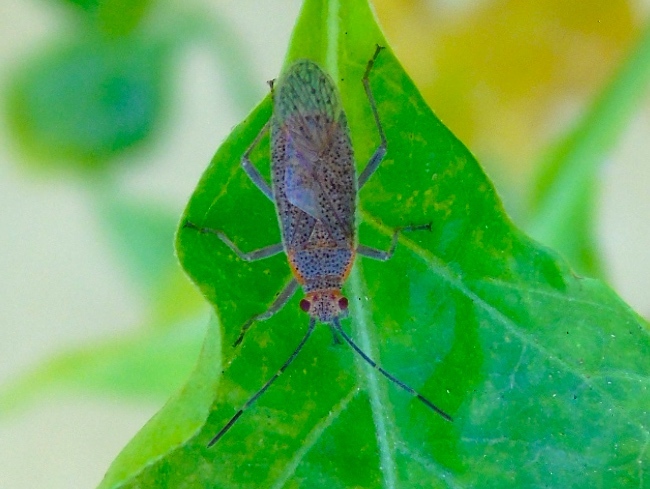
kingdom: Animalia
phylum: Arthropoda
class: Insecta
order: Hemiptera
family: Rhopalidae
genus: Jadera
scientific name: Jadera coturnix
